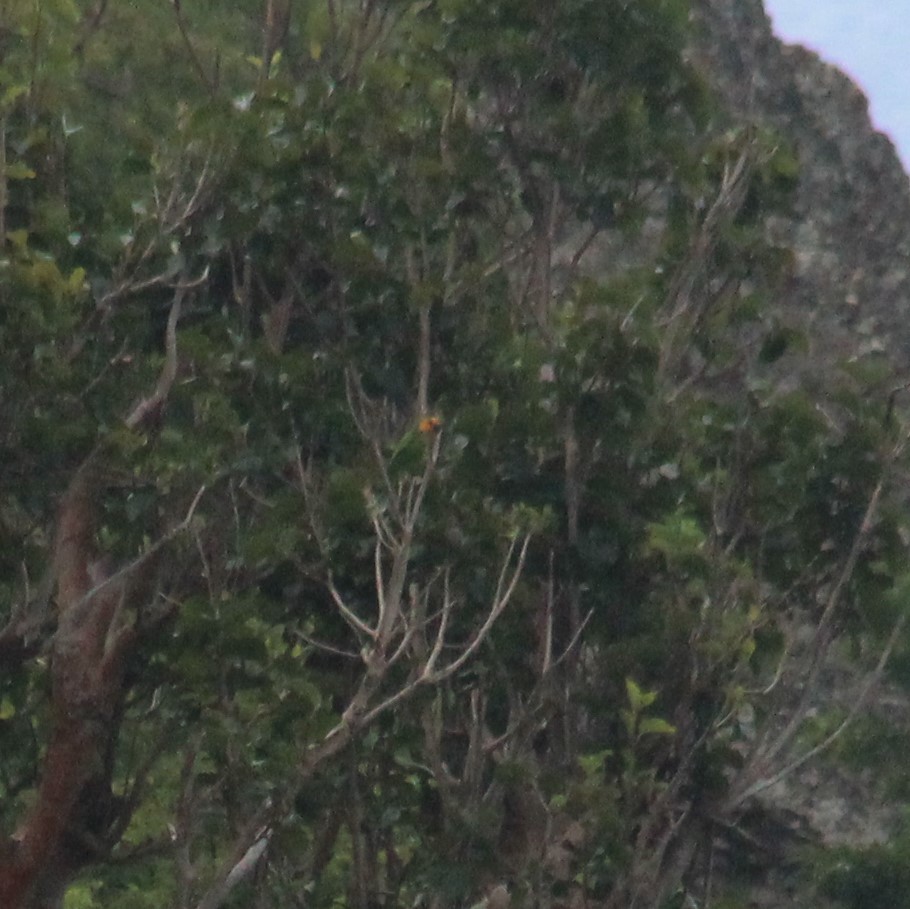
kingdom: Animalia
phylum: Chordata
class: Aves
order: Psittaciformes
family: Psittacidae
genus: Aratinga
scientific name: Aratinga pertinax
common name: Brown-throated parakeet
